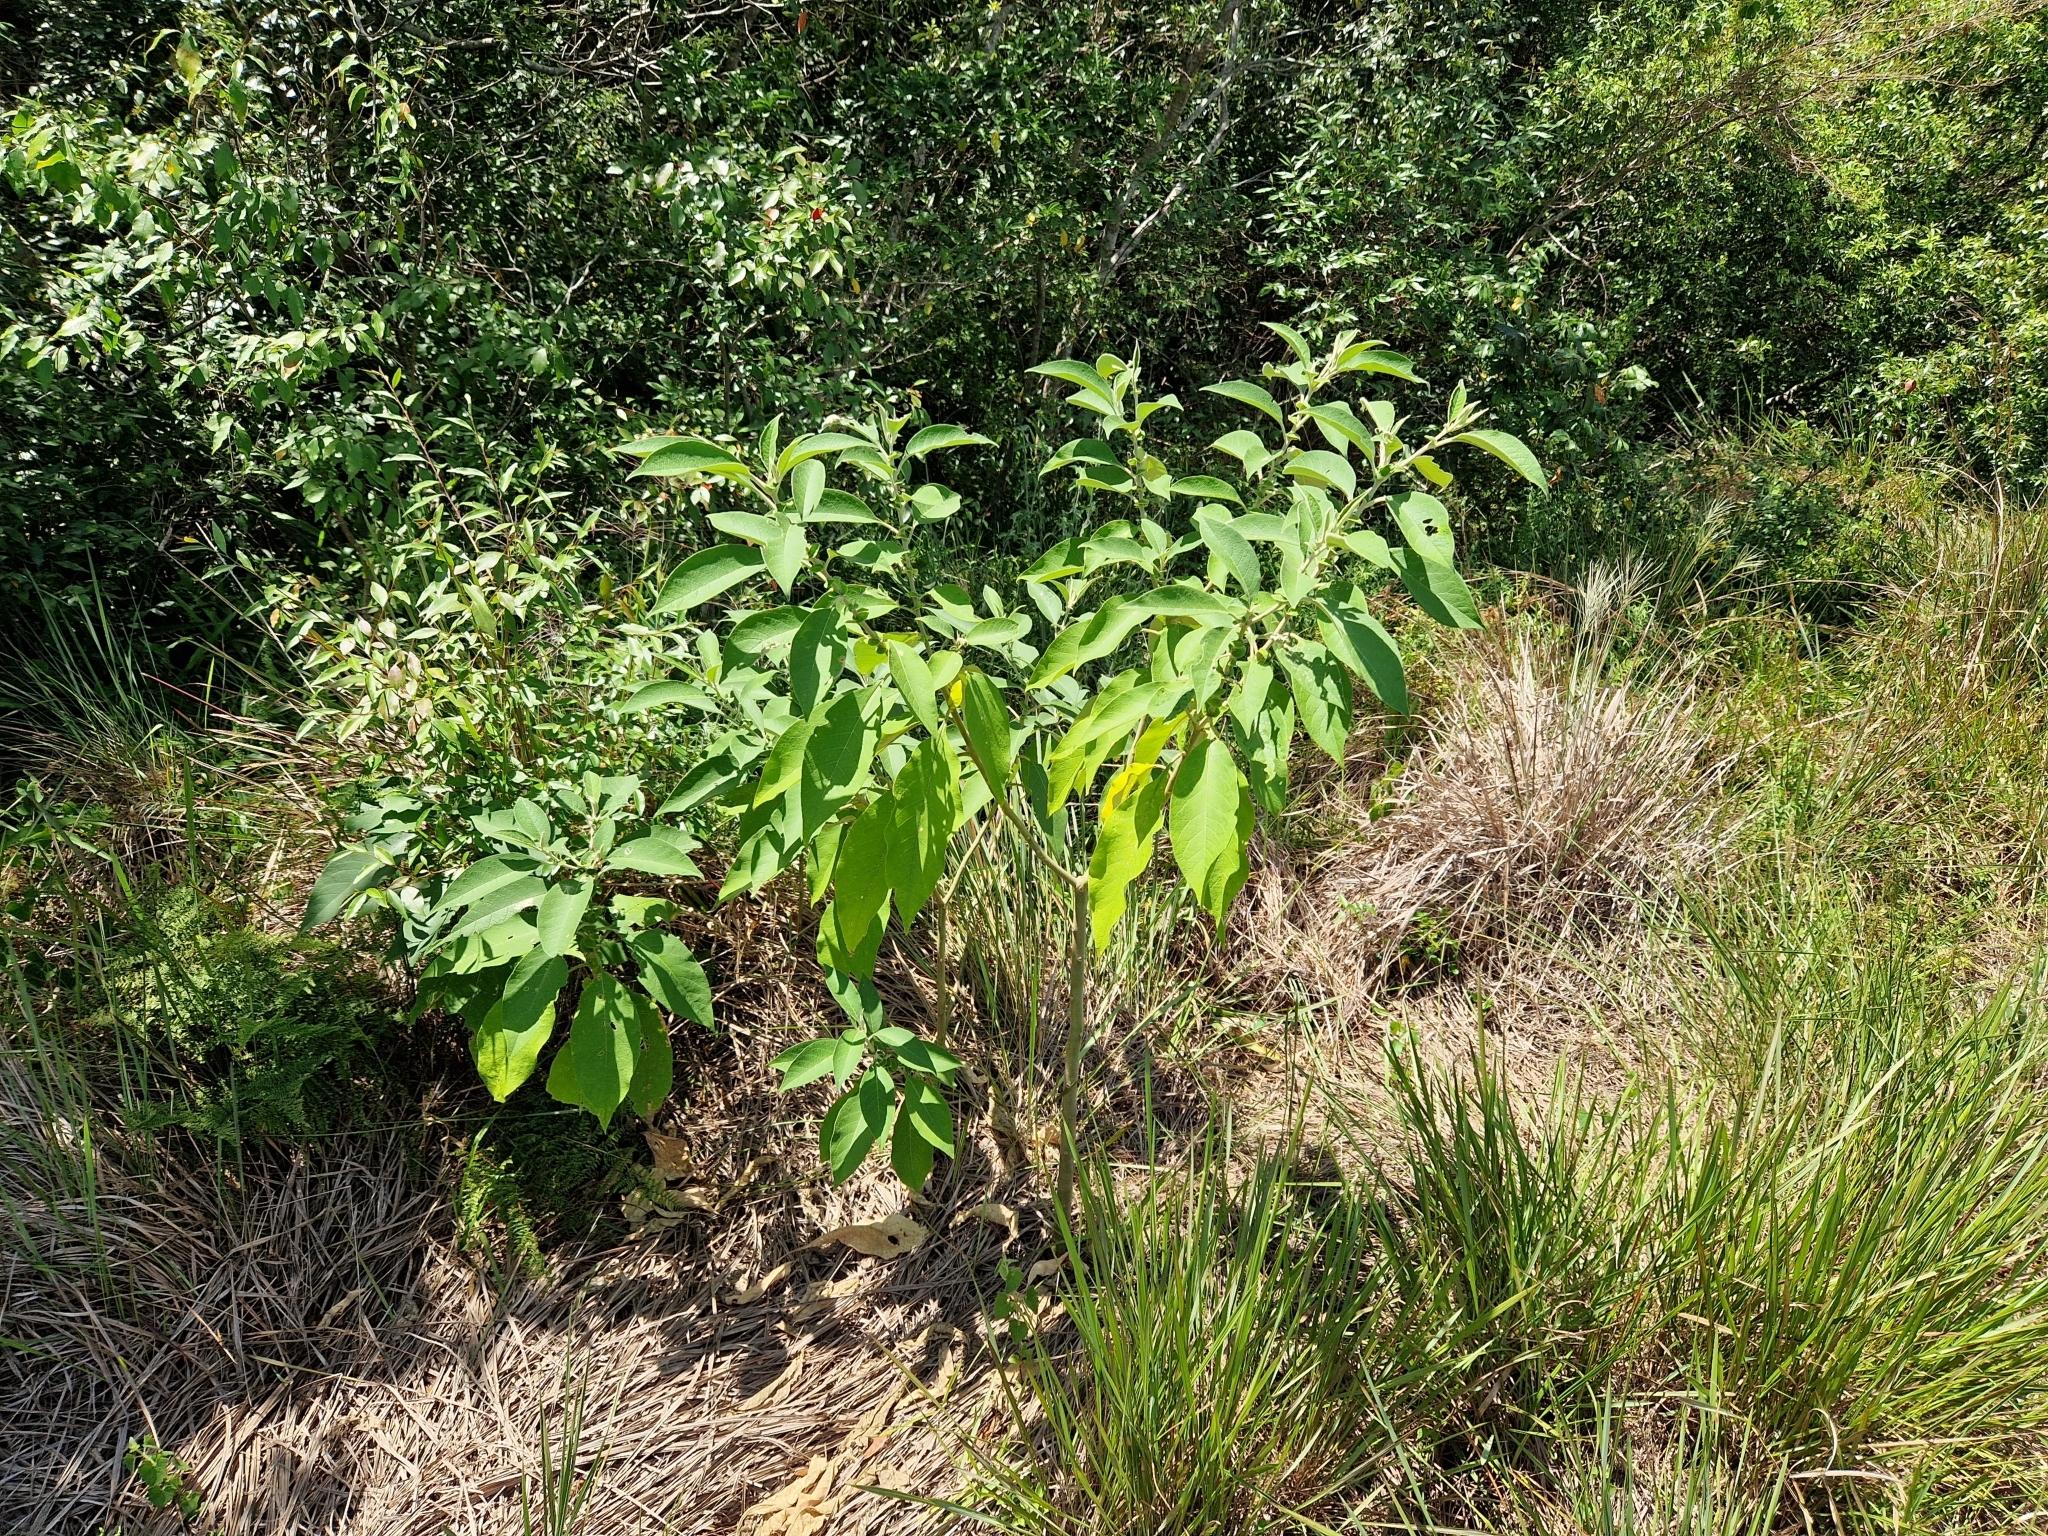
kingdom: Plantae
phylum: Tracheophyta
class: Magnoliopsida
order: Solanales
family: Solanaceae
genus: Solanum
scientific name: Solanum granulosoleprosum
